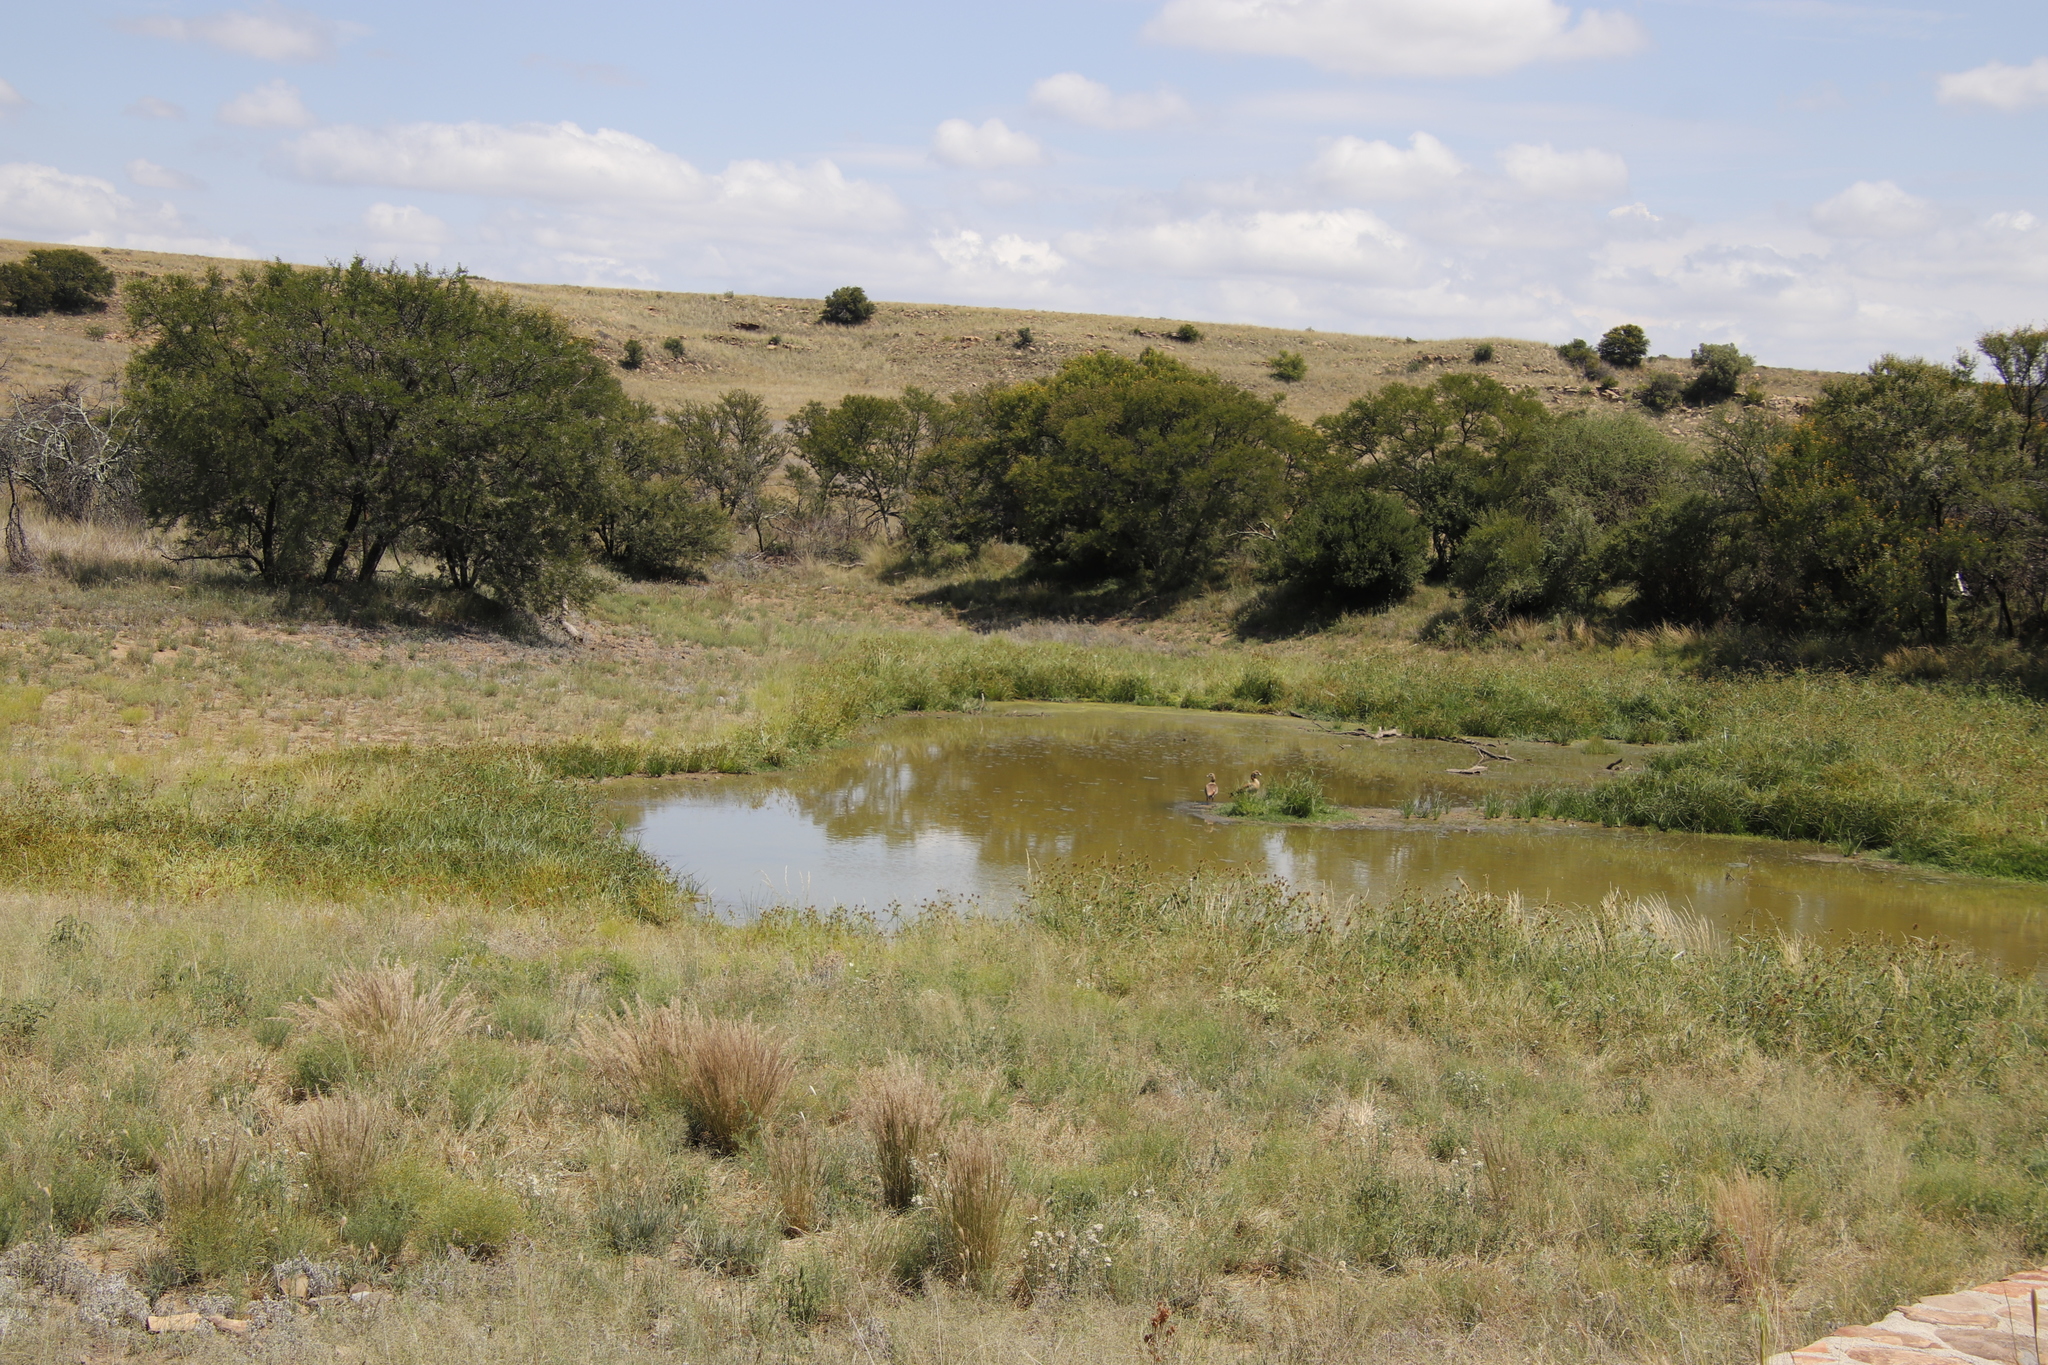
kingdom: Animalia
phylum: Chordata
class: Aves
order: Anseriformes
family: Anatidae
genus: Alopochen
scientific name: Alopochen aegyptiaca
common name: Egyptian goose
